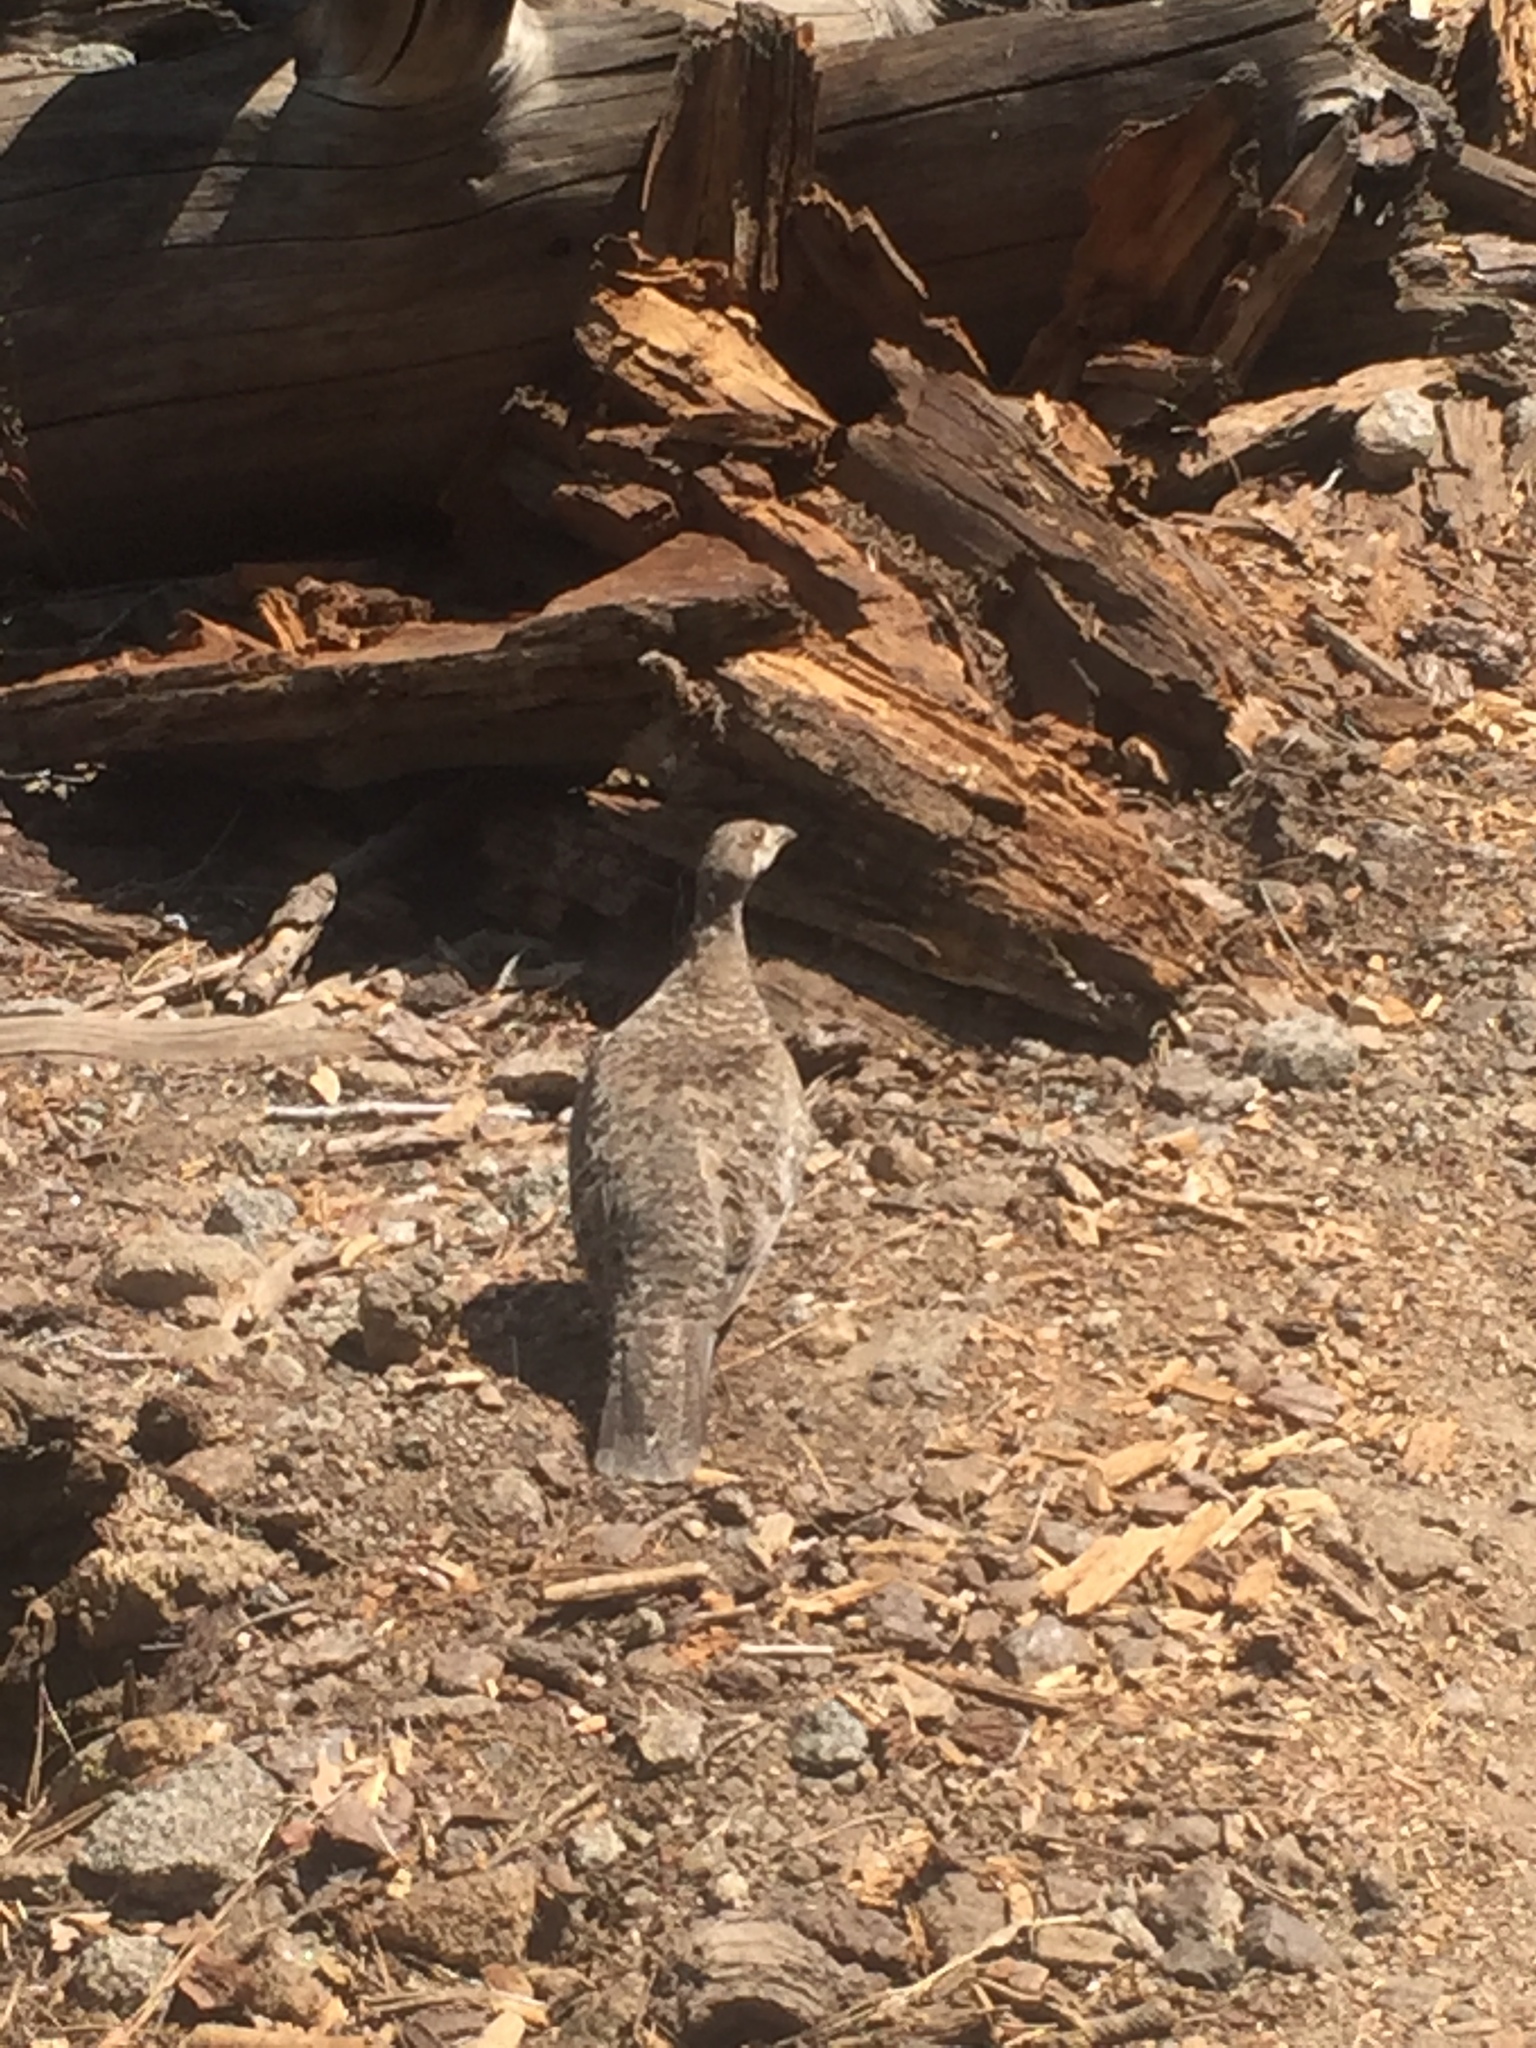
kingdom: Animalia
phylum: Chordata
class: Aves
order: Galliformes
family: Phasianidae
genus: Dendragapus
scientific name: Dendragapus fuliginosus
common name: Sooty grouse
